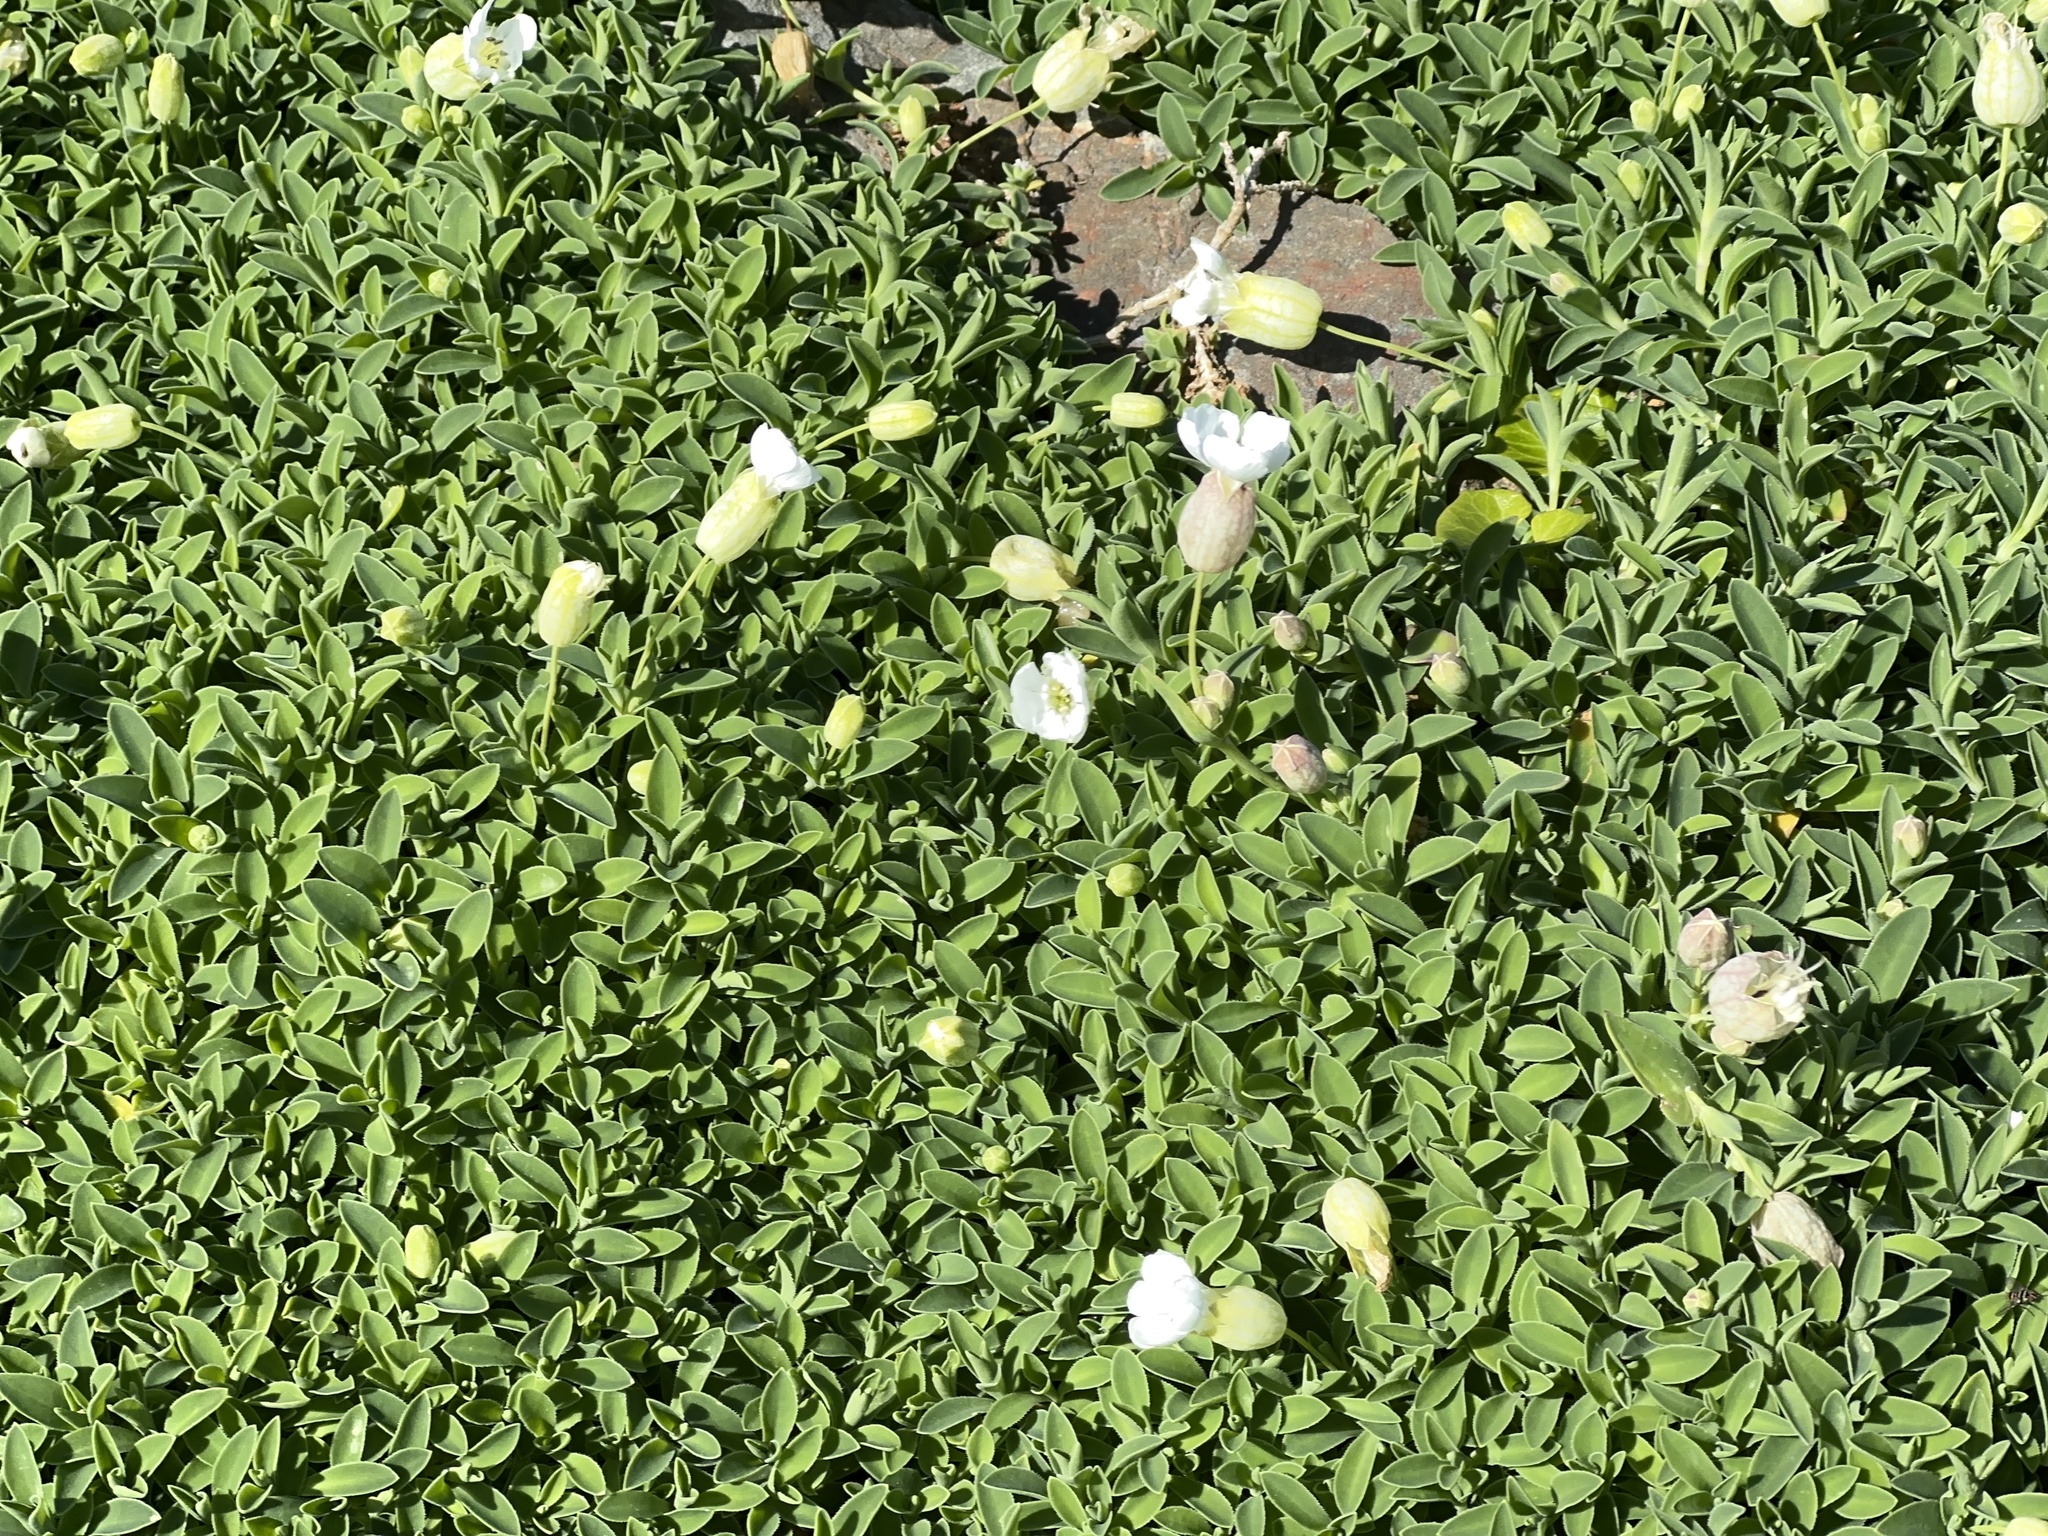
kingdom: Plantae
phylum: Tracheophyta
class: Magnoliopsida
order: Caryophyllales
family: Caryophyllaceae
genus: Silene
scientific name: Silene uniflora
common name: Sea campion
